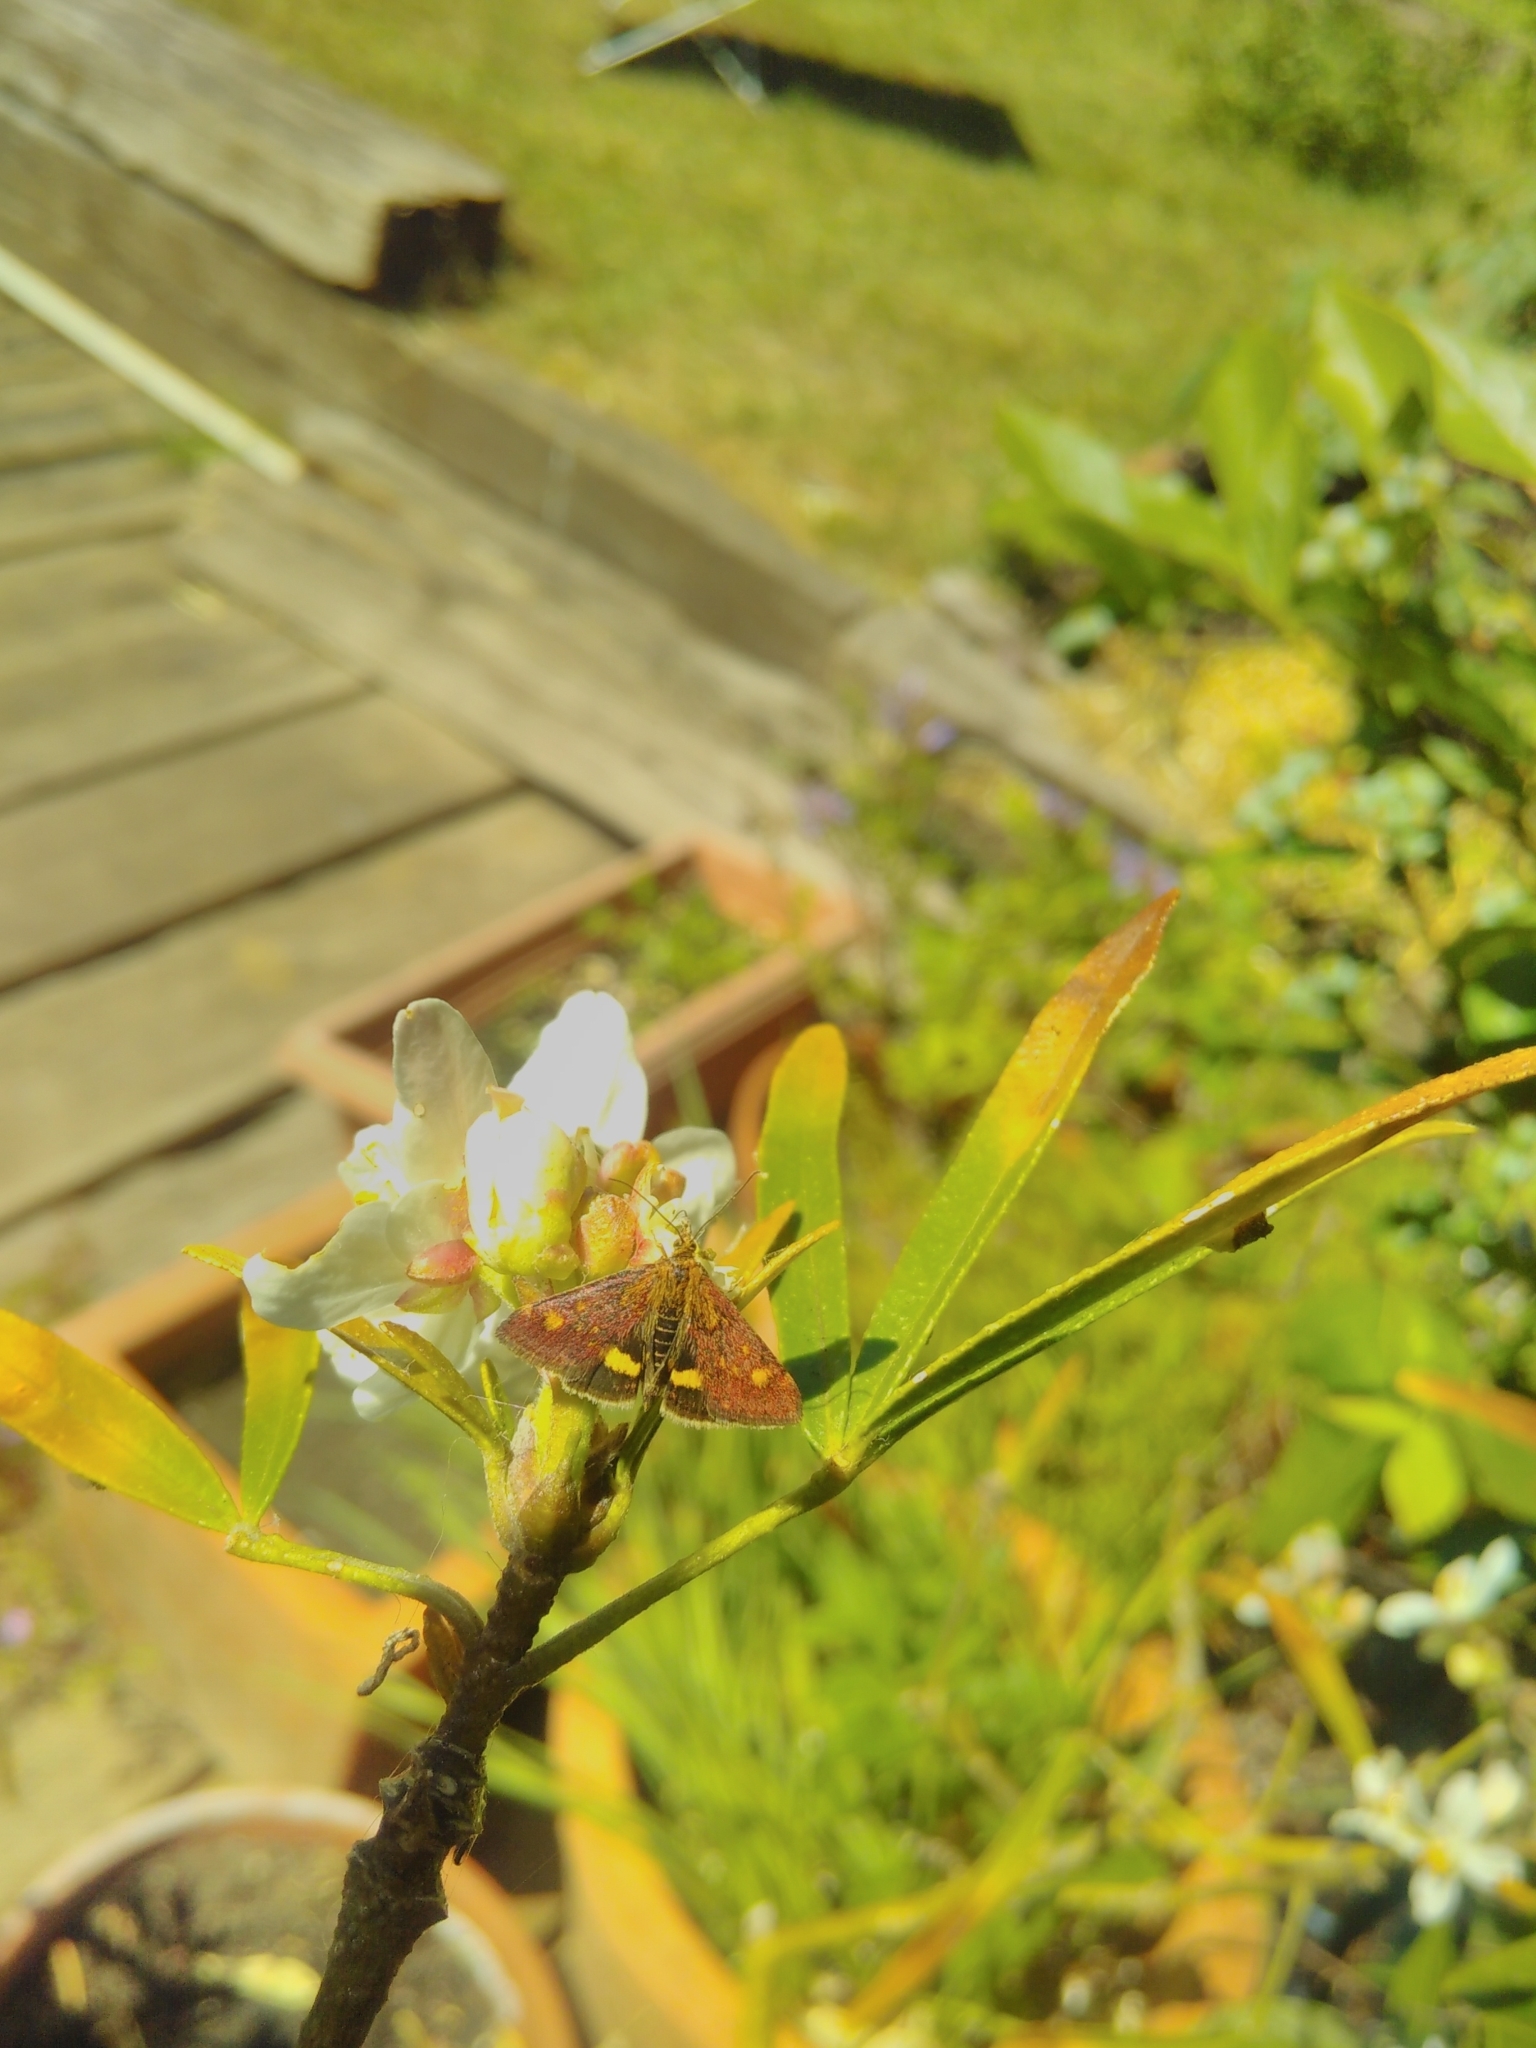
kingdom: Animalia
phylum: Arthropoda
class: Insecta
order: Lepidoptera
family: Crambidae
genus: Pyrausta
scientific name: Pyrausta aurata
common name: Small purple & gold
